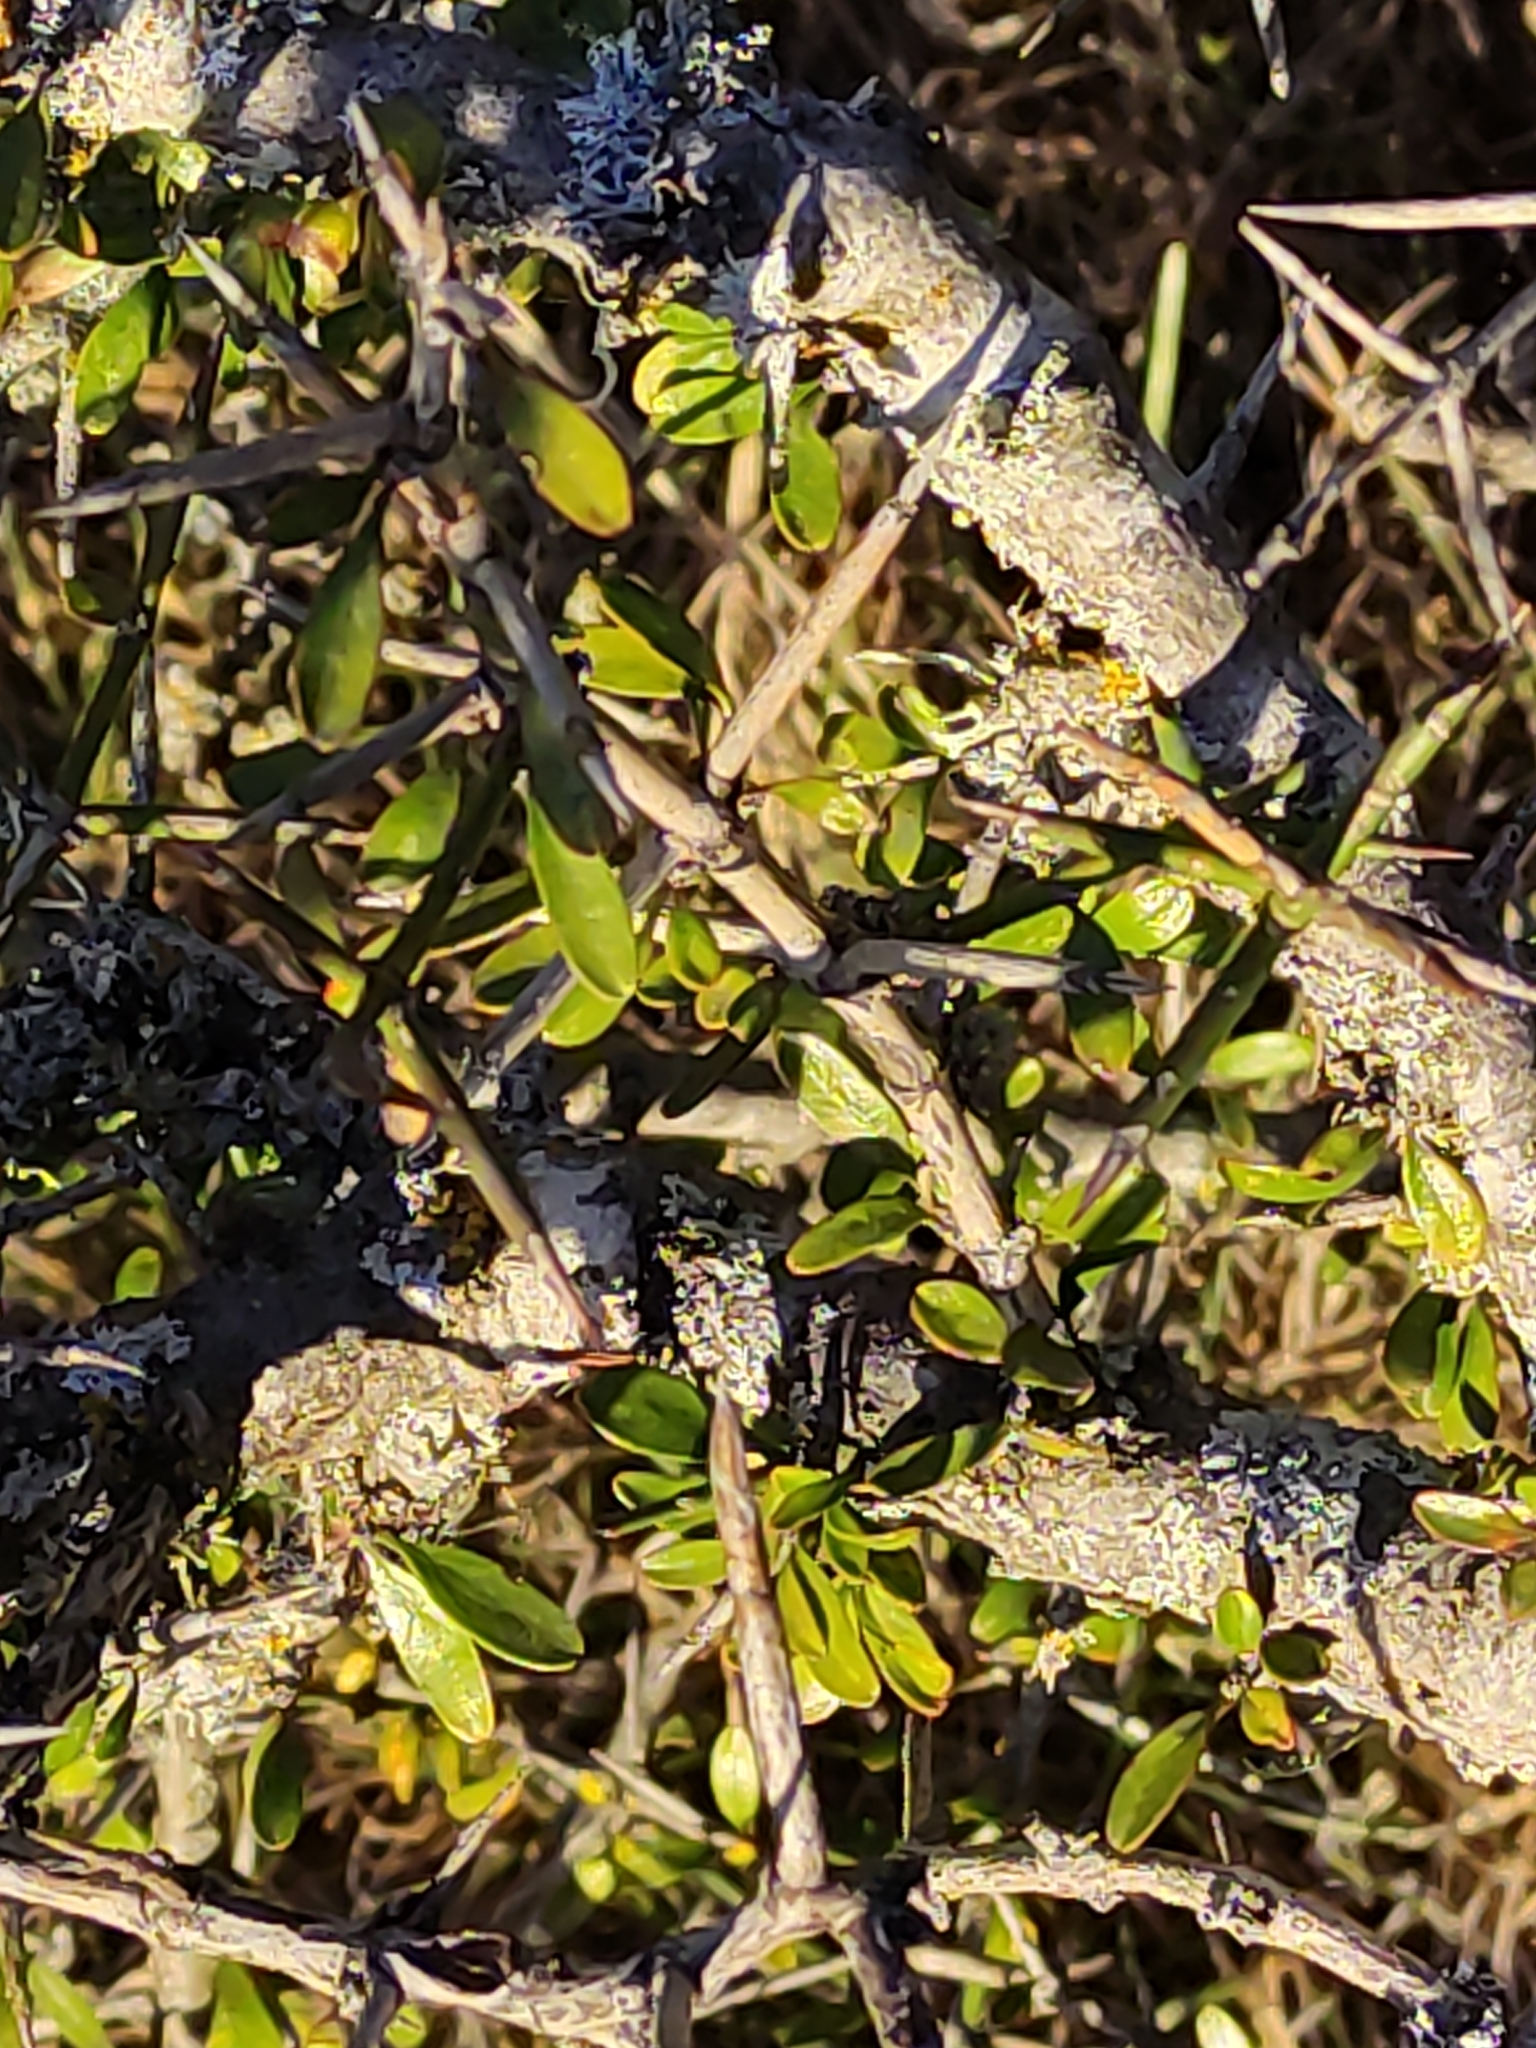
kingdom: Plantae
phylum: Tracheophyta
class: Magnoliopsida
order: Rosales
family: Rhamnaceae
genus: Discaria
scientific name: Discaria toumatou
